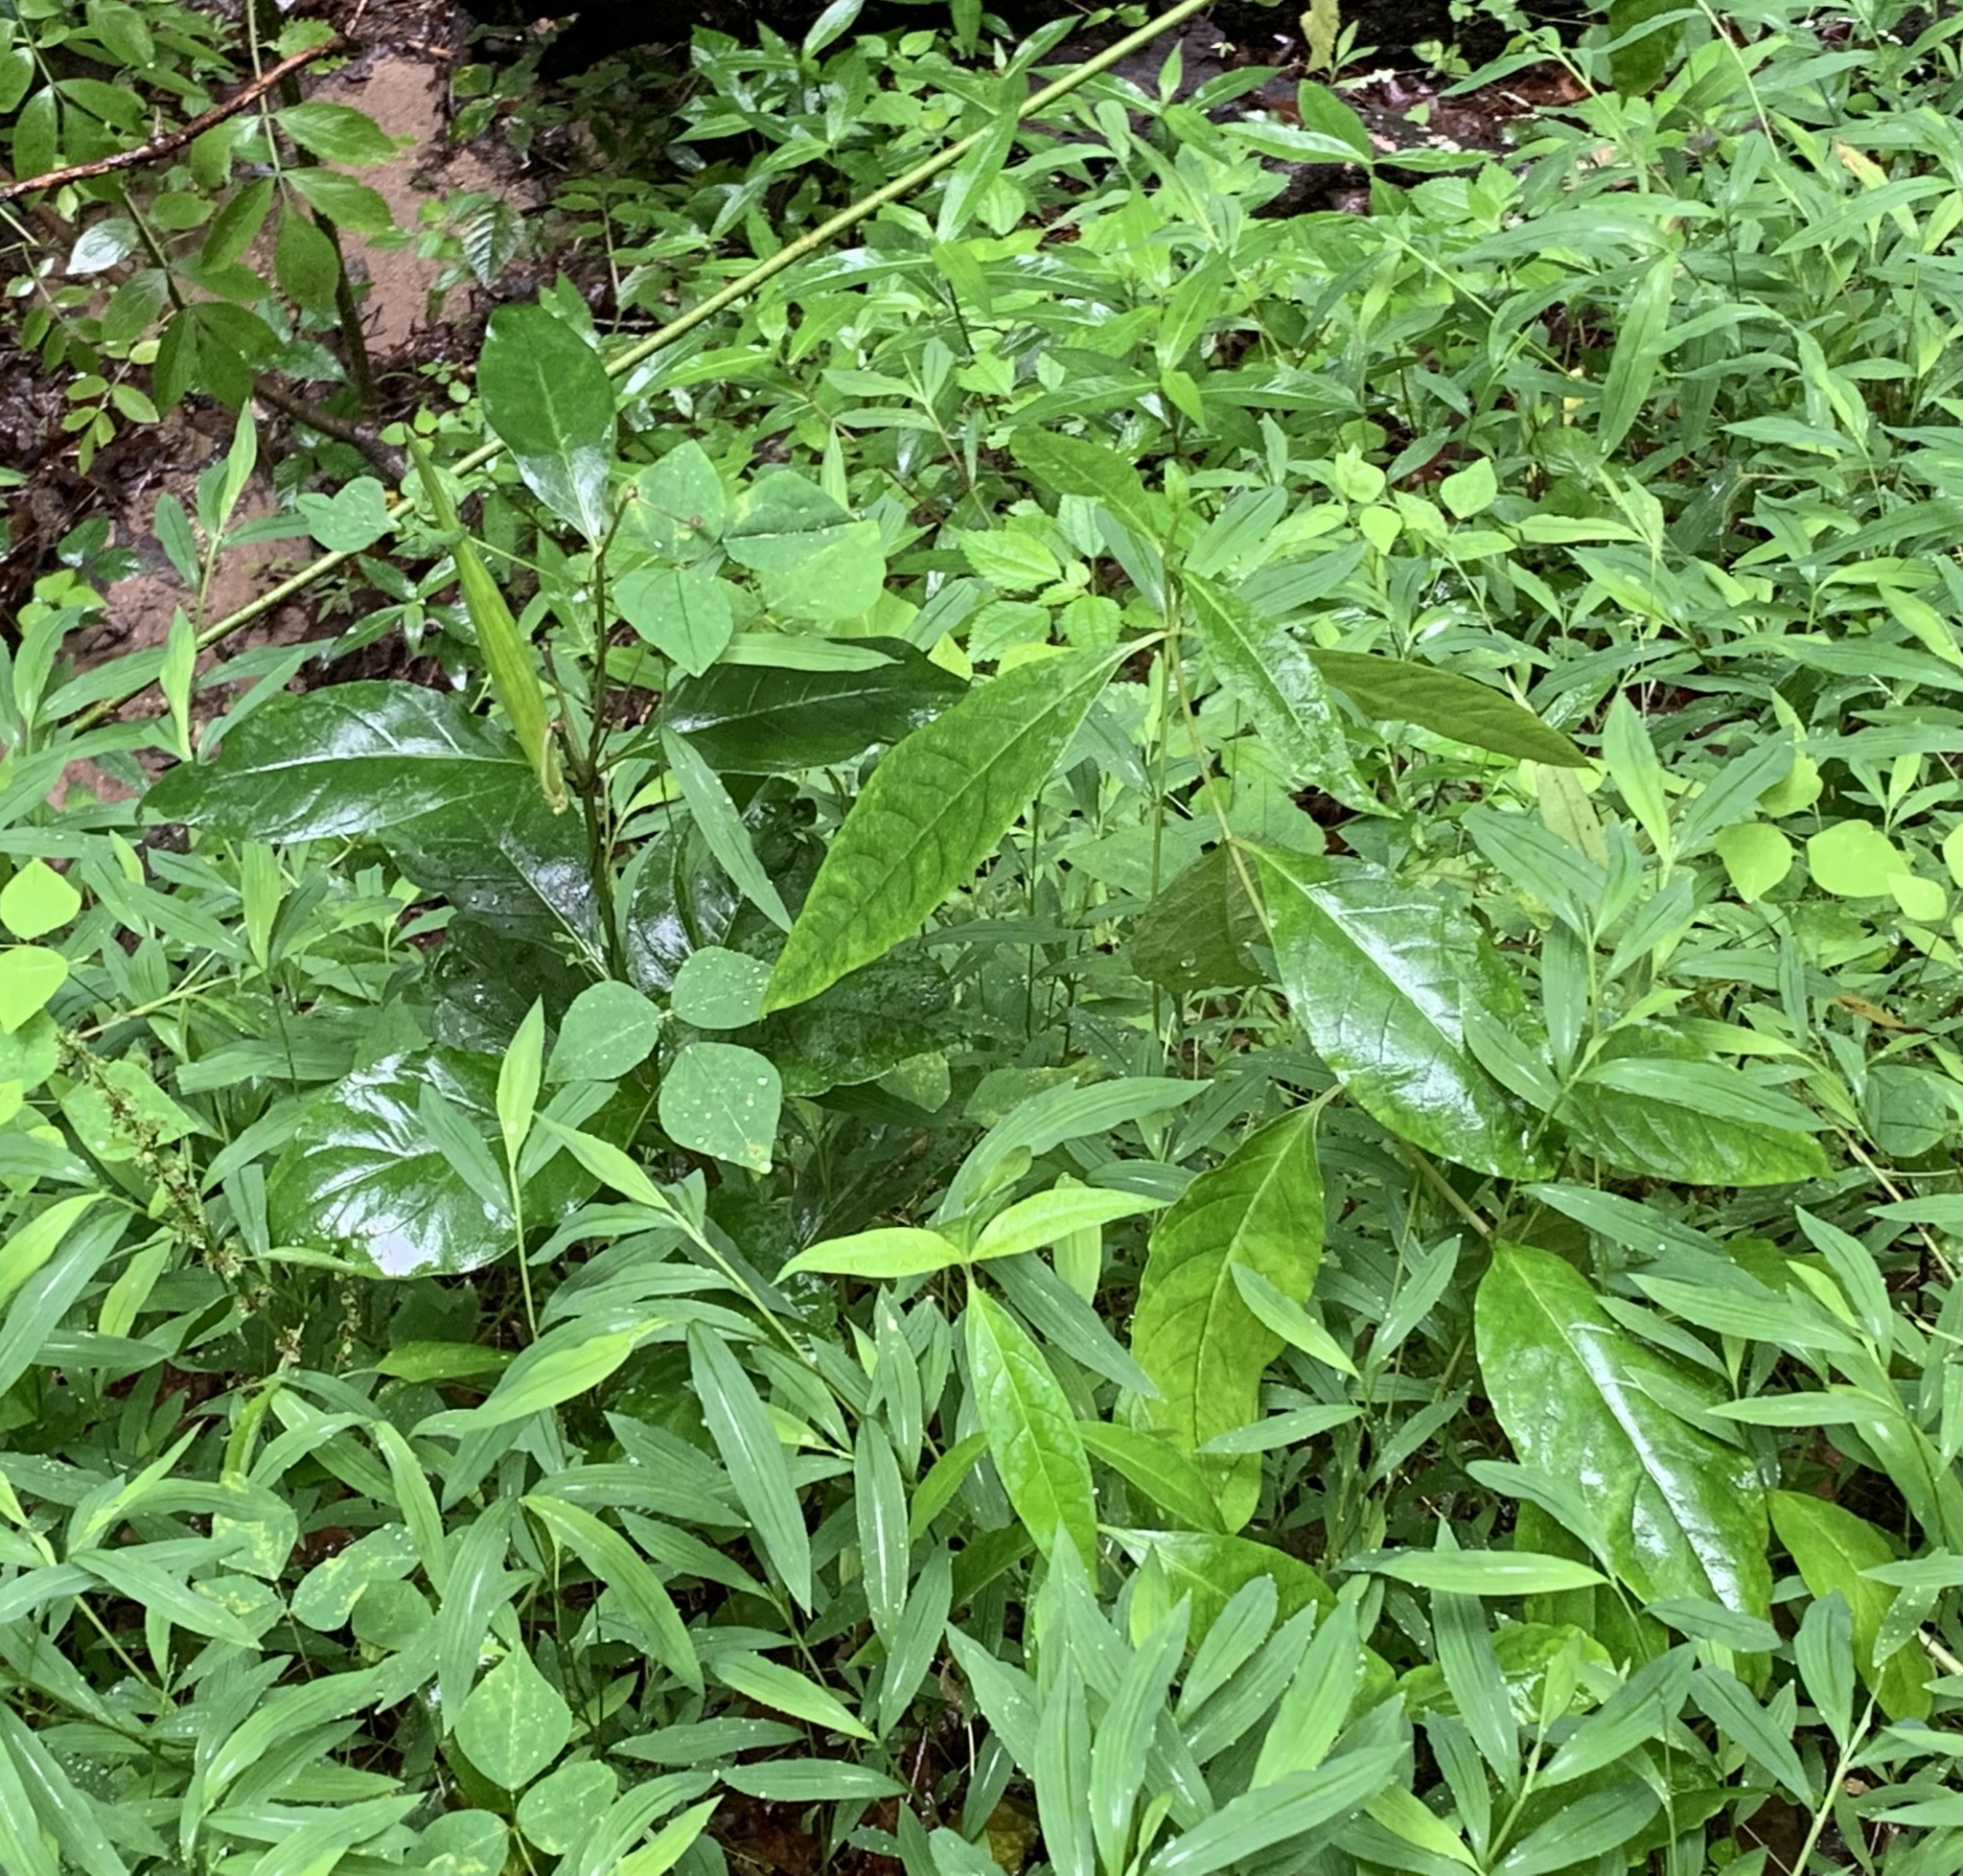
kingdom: Plantae
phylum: Tracheophyta
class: Magnoliopsida
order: Gentianales
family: Apocynaceae
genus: Asclepias
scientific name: Asclepias exaltata
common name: Poke milkweed
